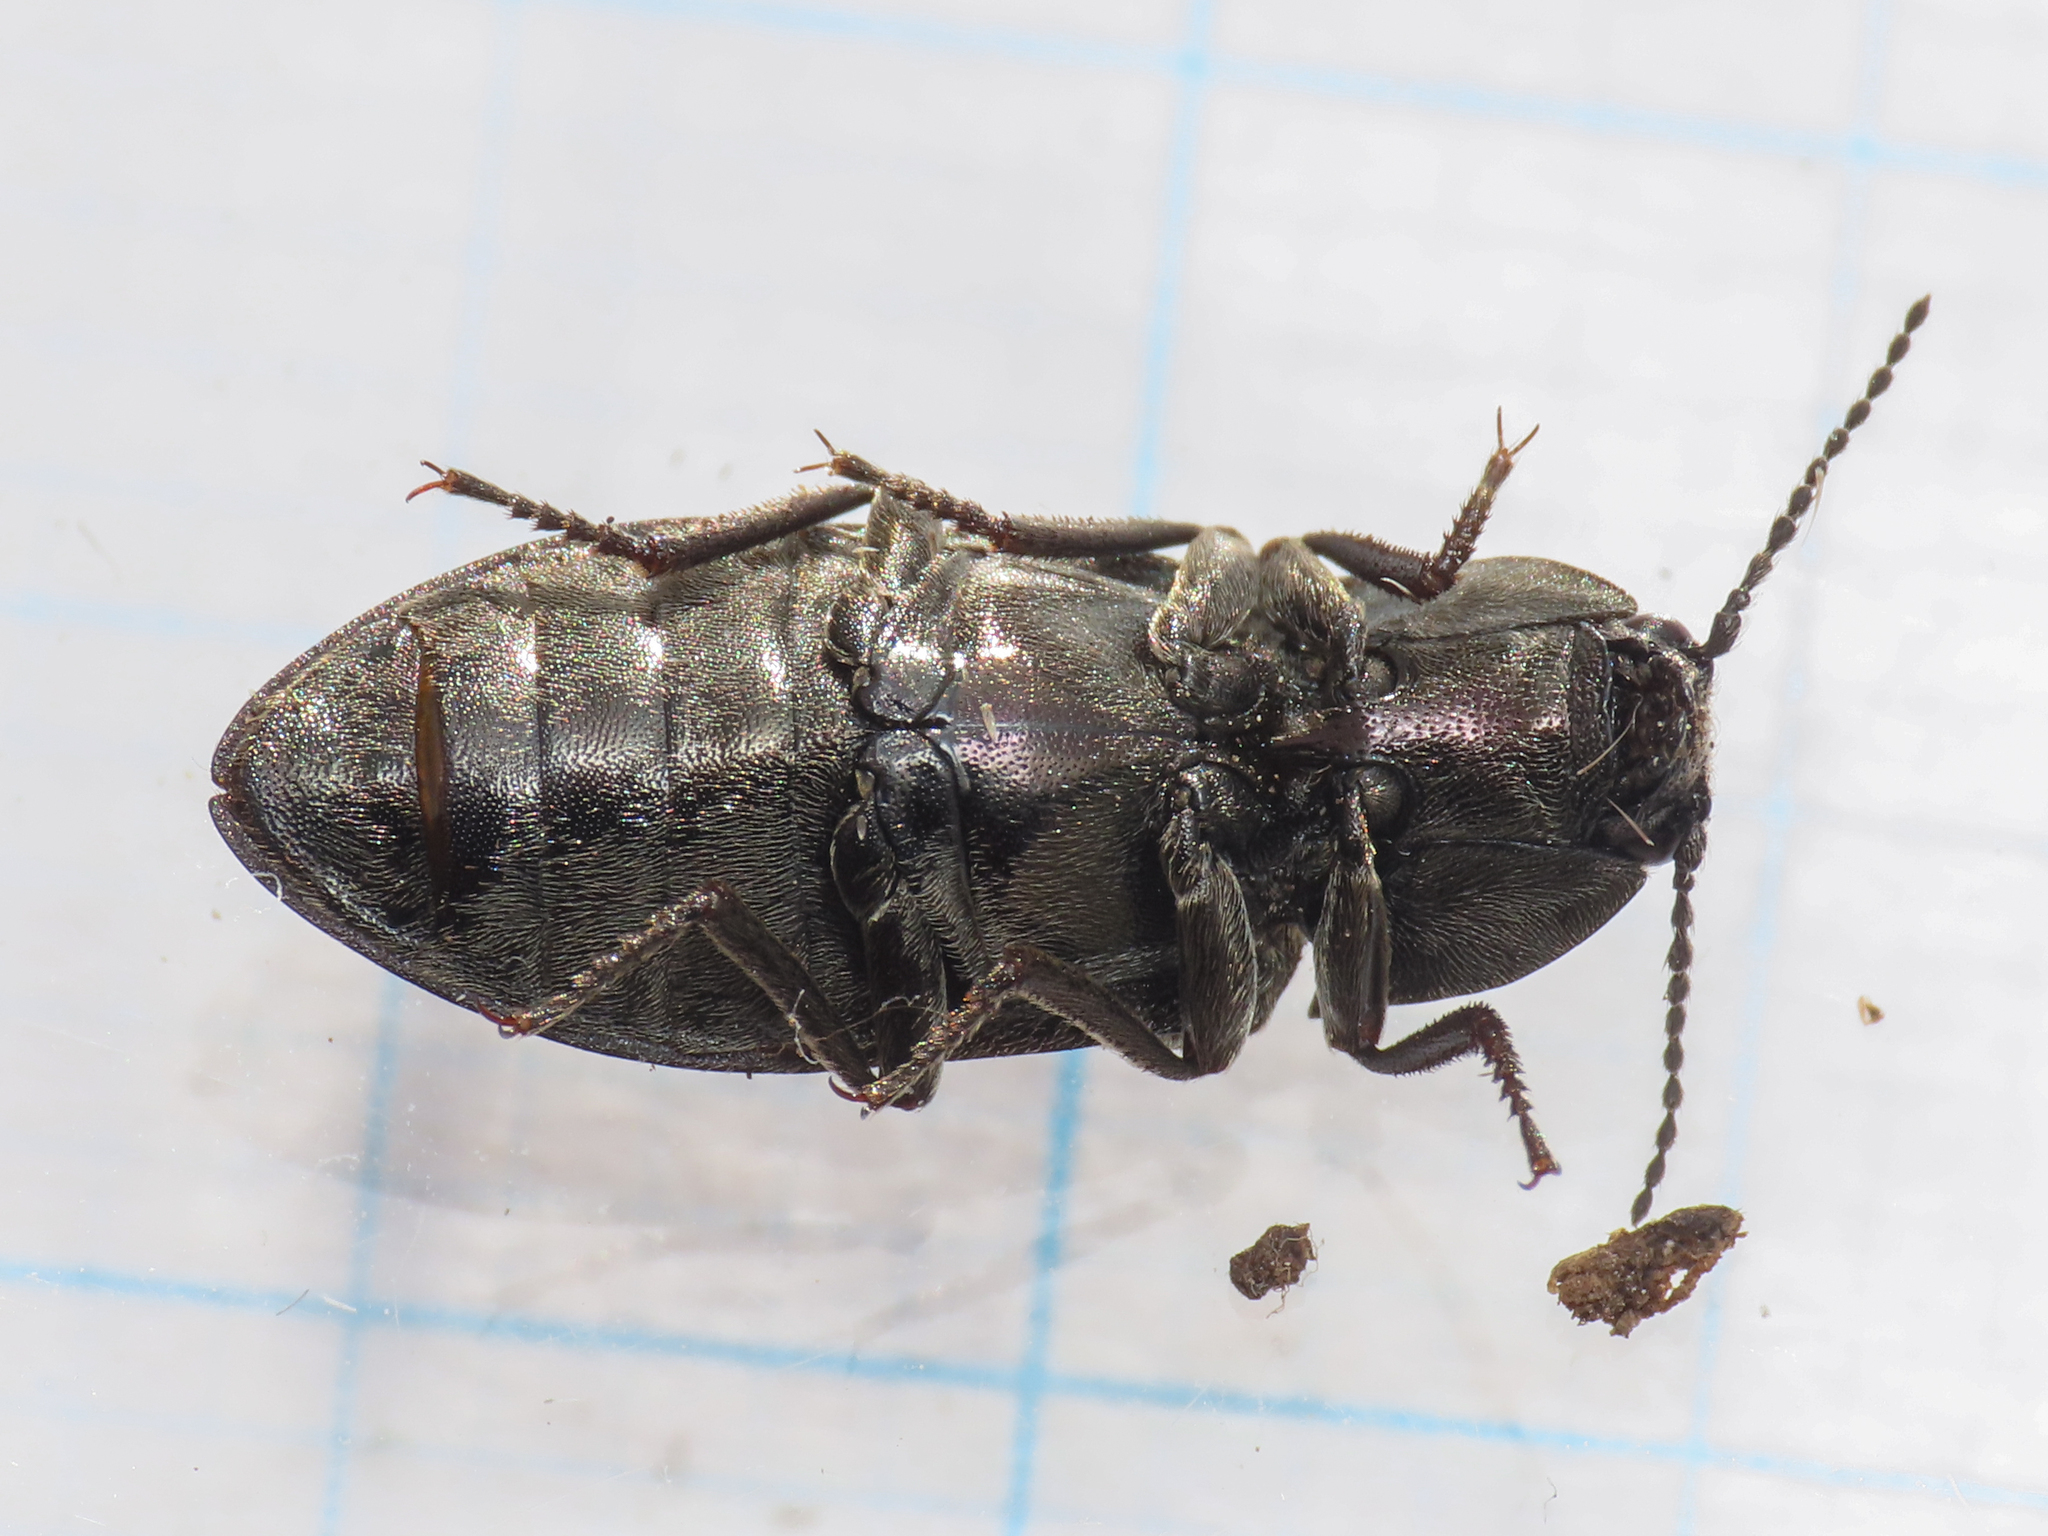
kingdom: Animalia
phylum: Arthropoda
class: Insecta
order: Coleoptera
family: Elateridae
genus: Selatosomus
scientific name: Selatosomus latus
